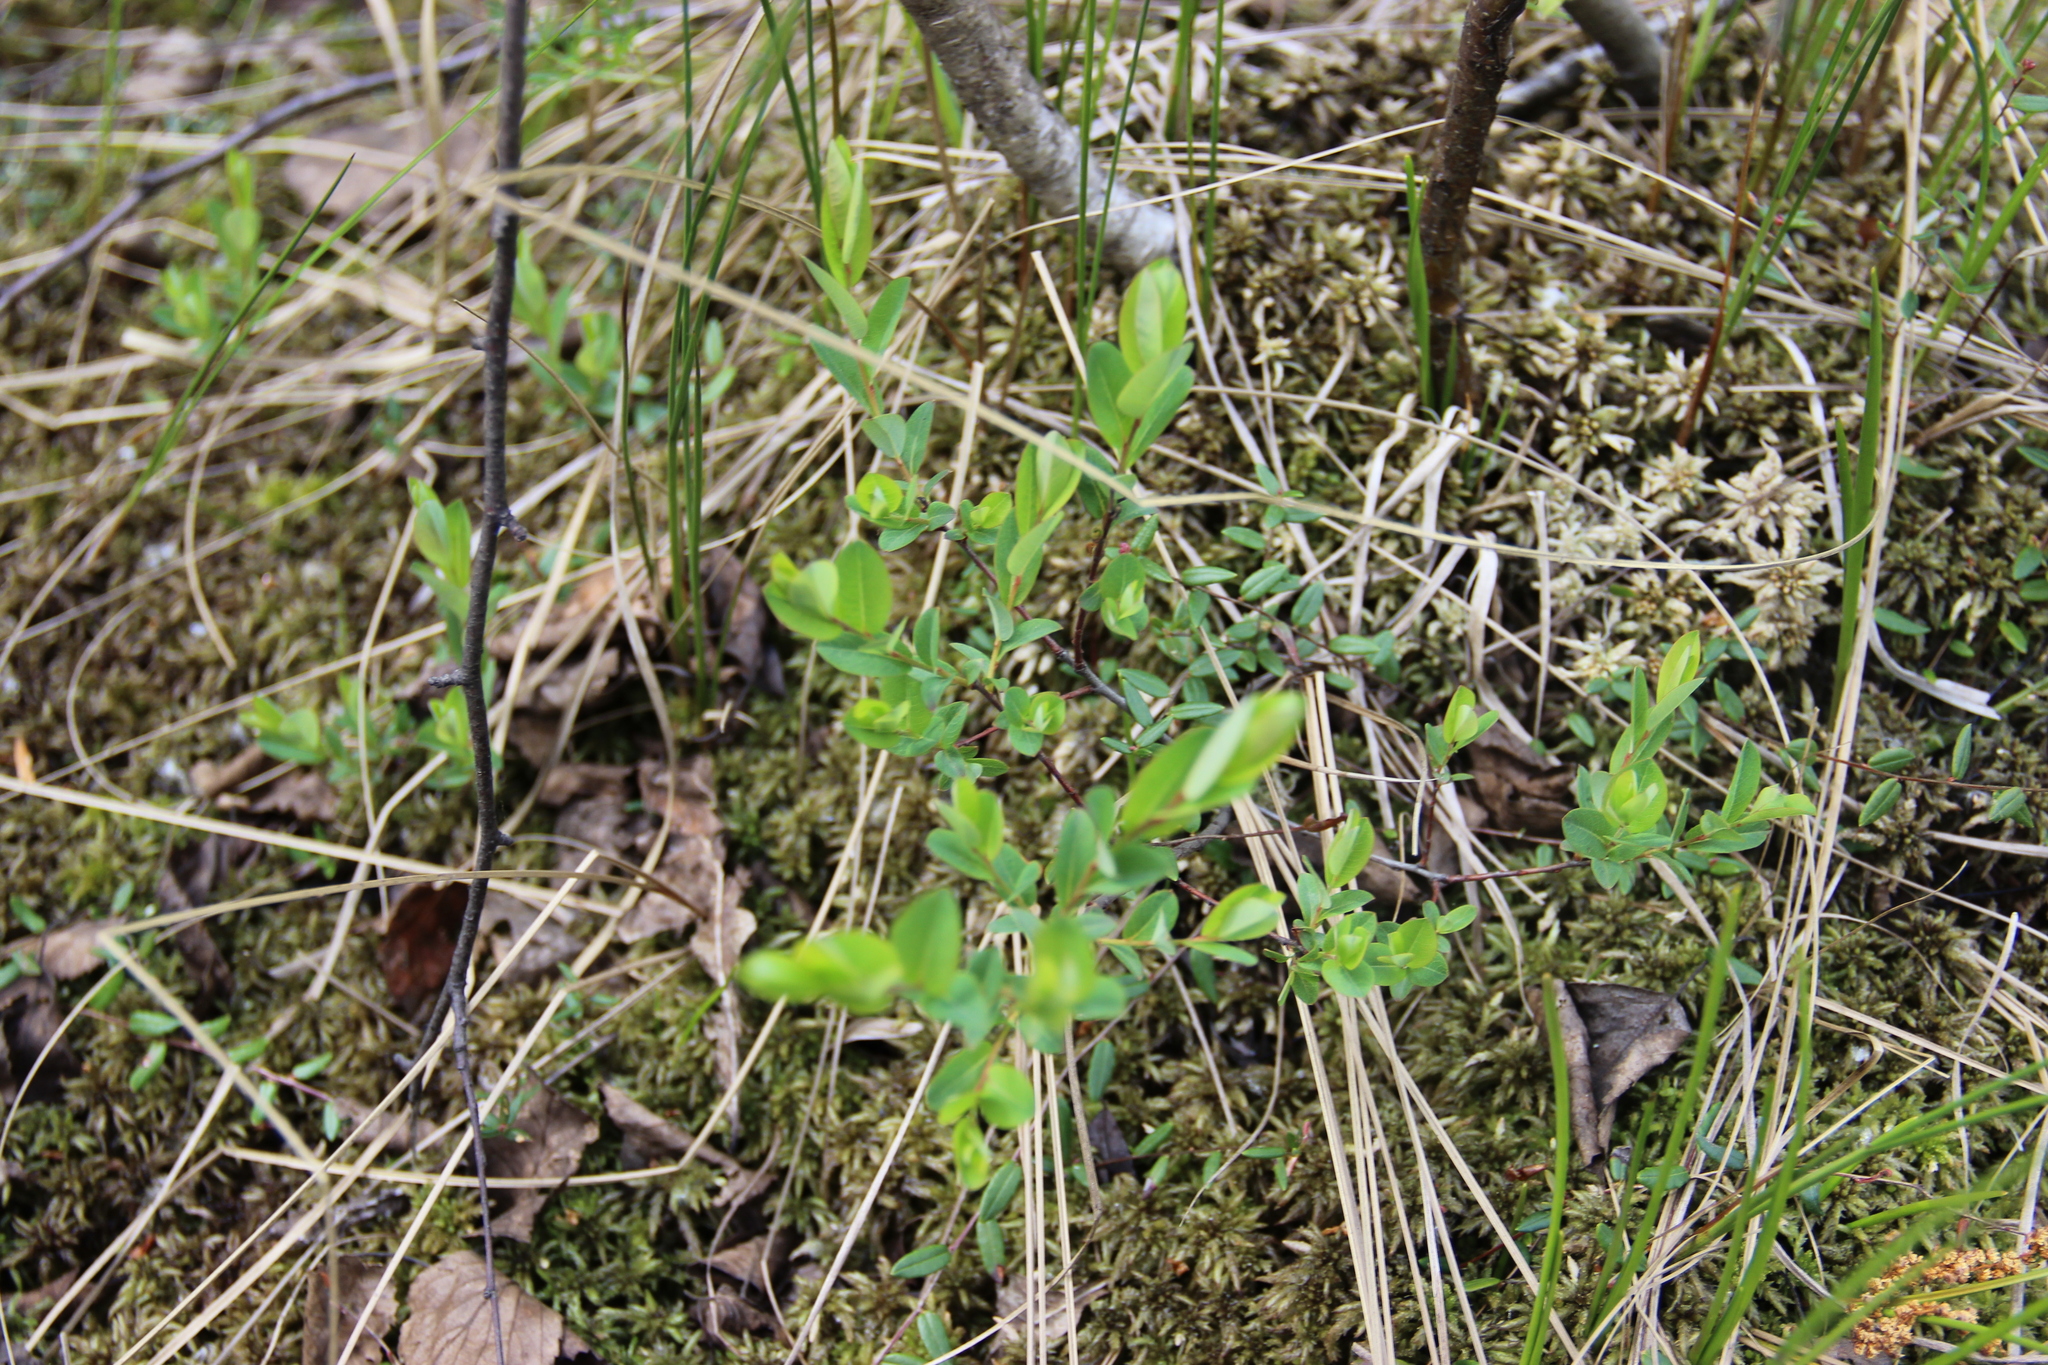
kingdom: Plantae
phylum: Tracheophyta
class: Magnoliopsida
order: Malpighiales
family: Salicaceae
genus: Salix
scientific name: Salix myrtilloides
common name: Myrtle-leaved willow
